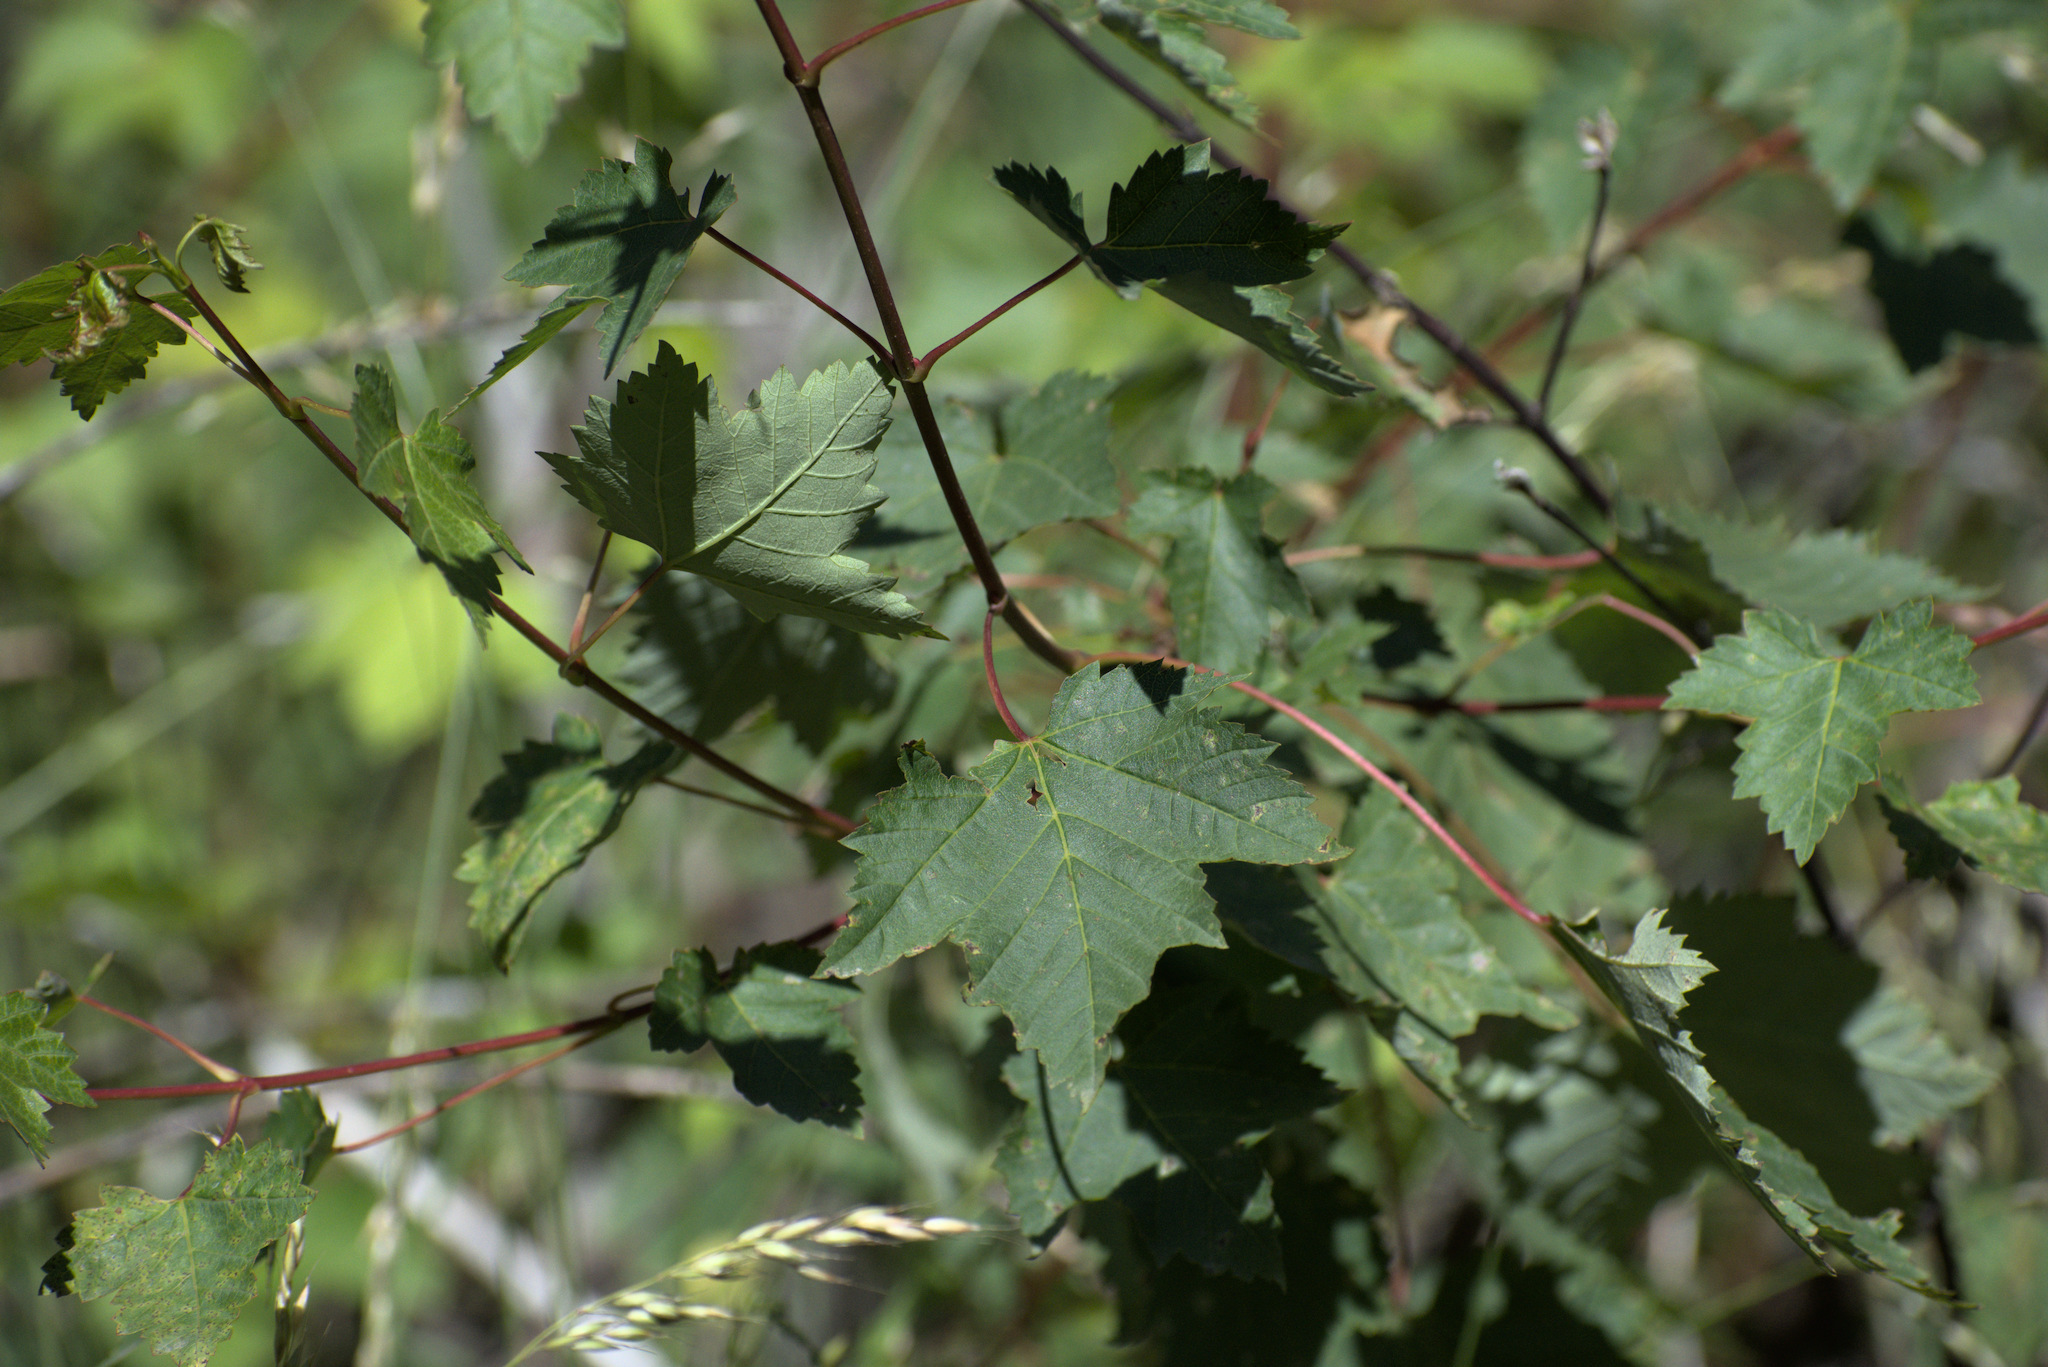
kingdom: Plantae
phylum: Tracheophyta
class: Magnoliopsida
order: Sapindales
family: Sapindaceae
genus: Acer
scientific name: Acer glabrum
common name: Rocky mountain maple
